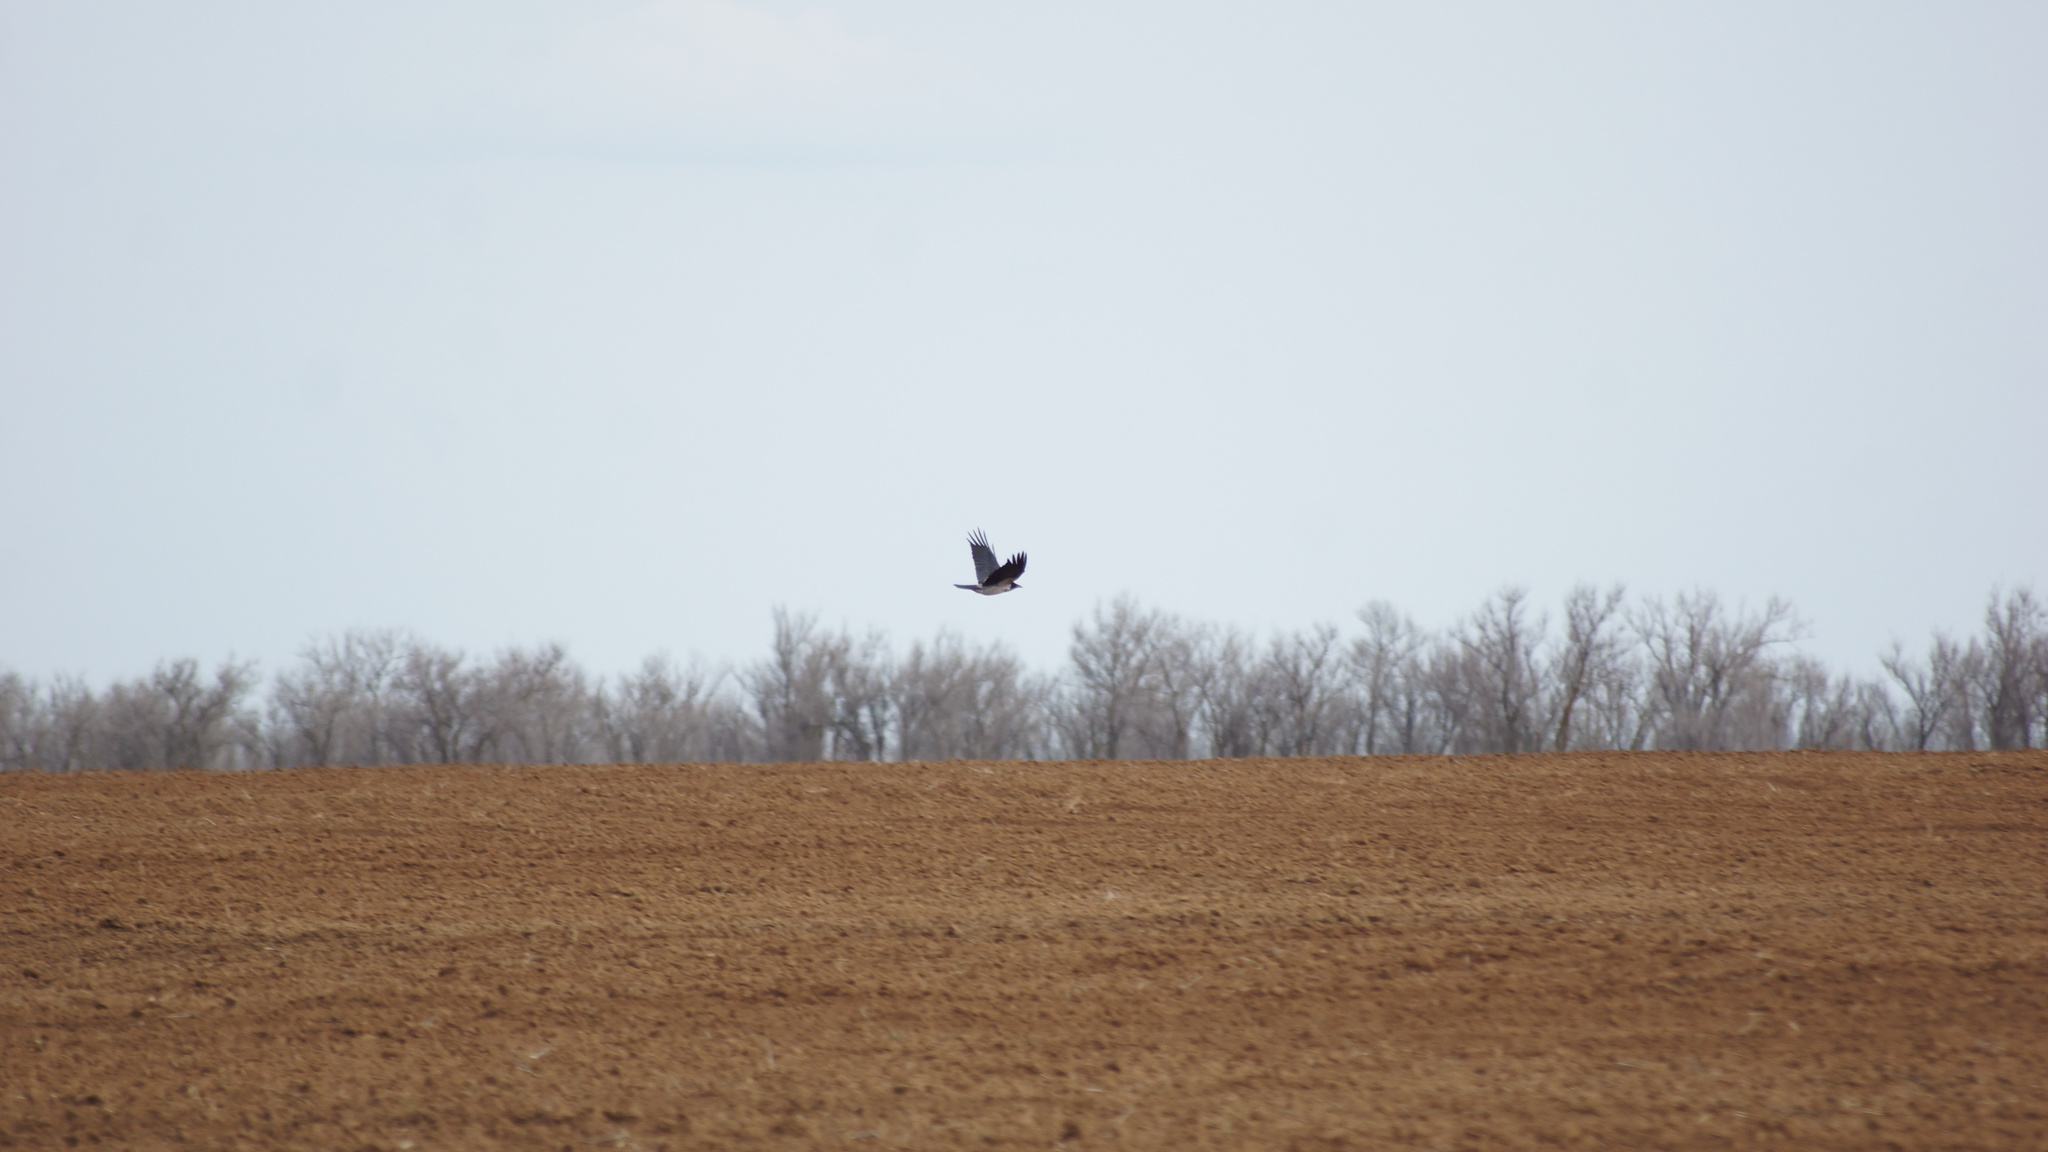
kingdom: Animalia
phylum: Chordata
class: Aves
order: Passeriformes
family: Corvidae
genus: Corvus
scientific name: Corvus cornix
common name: Hooded crow
